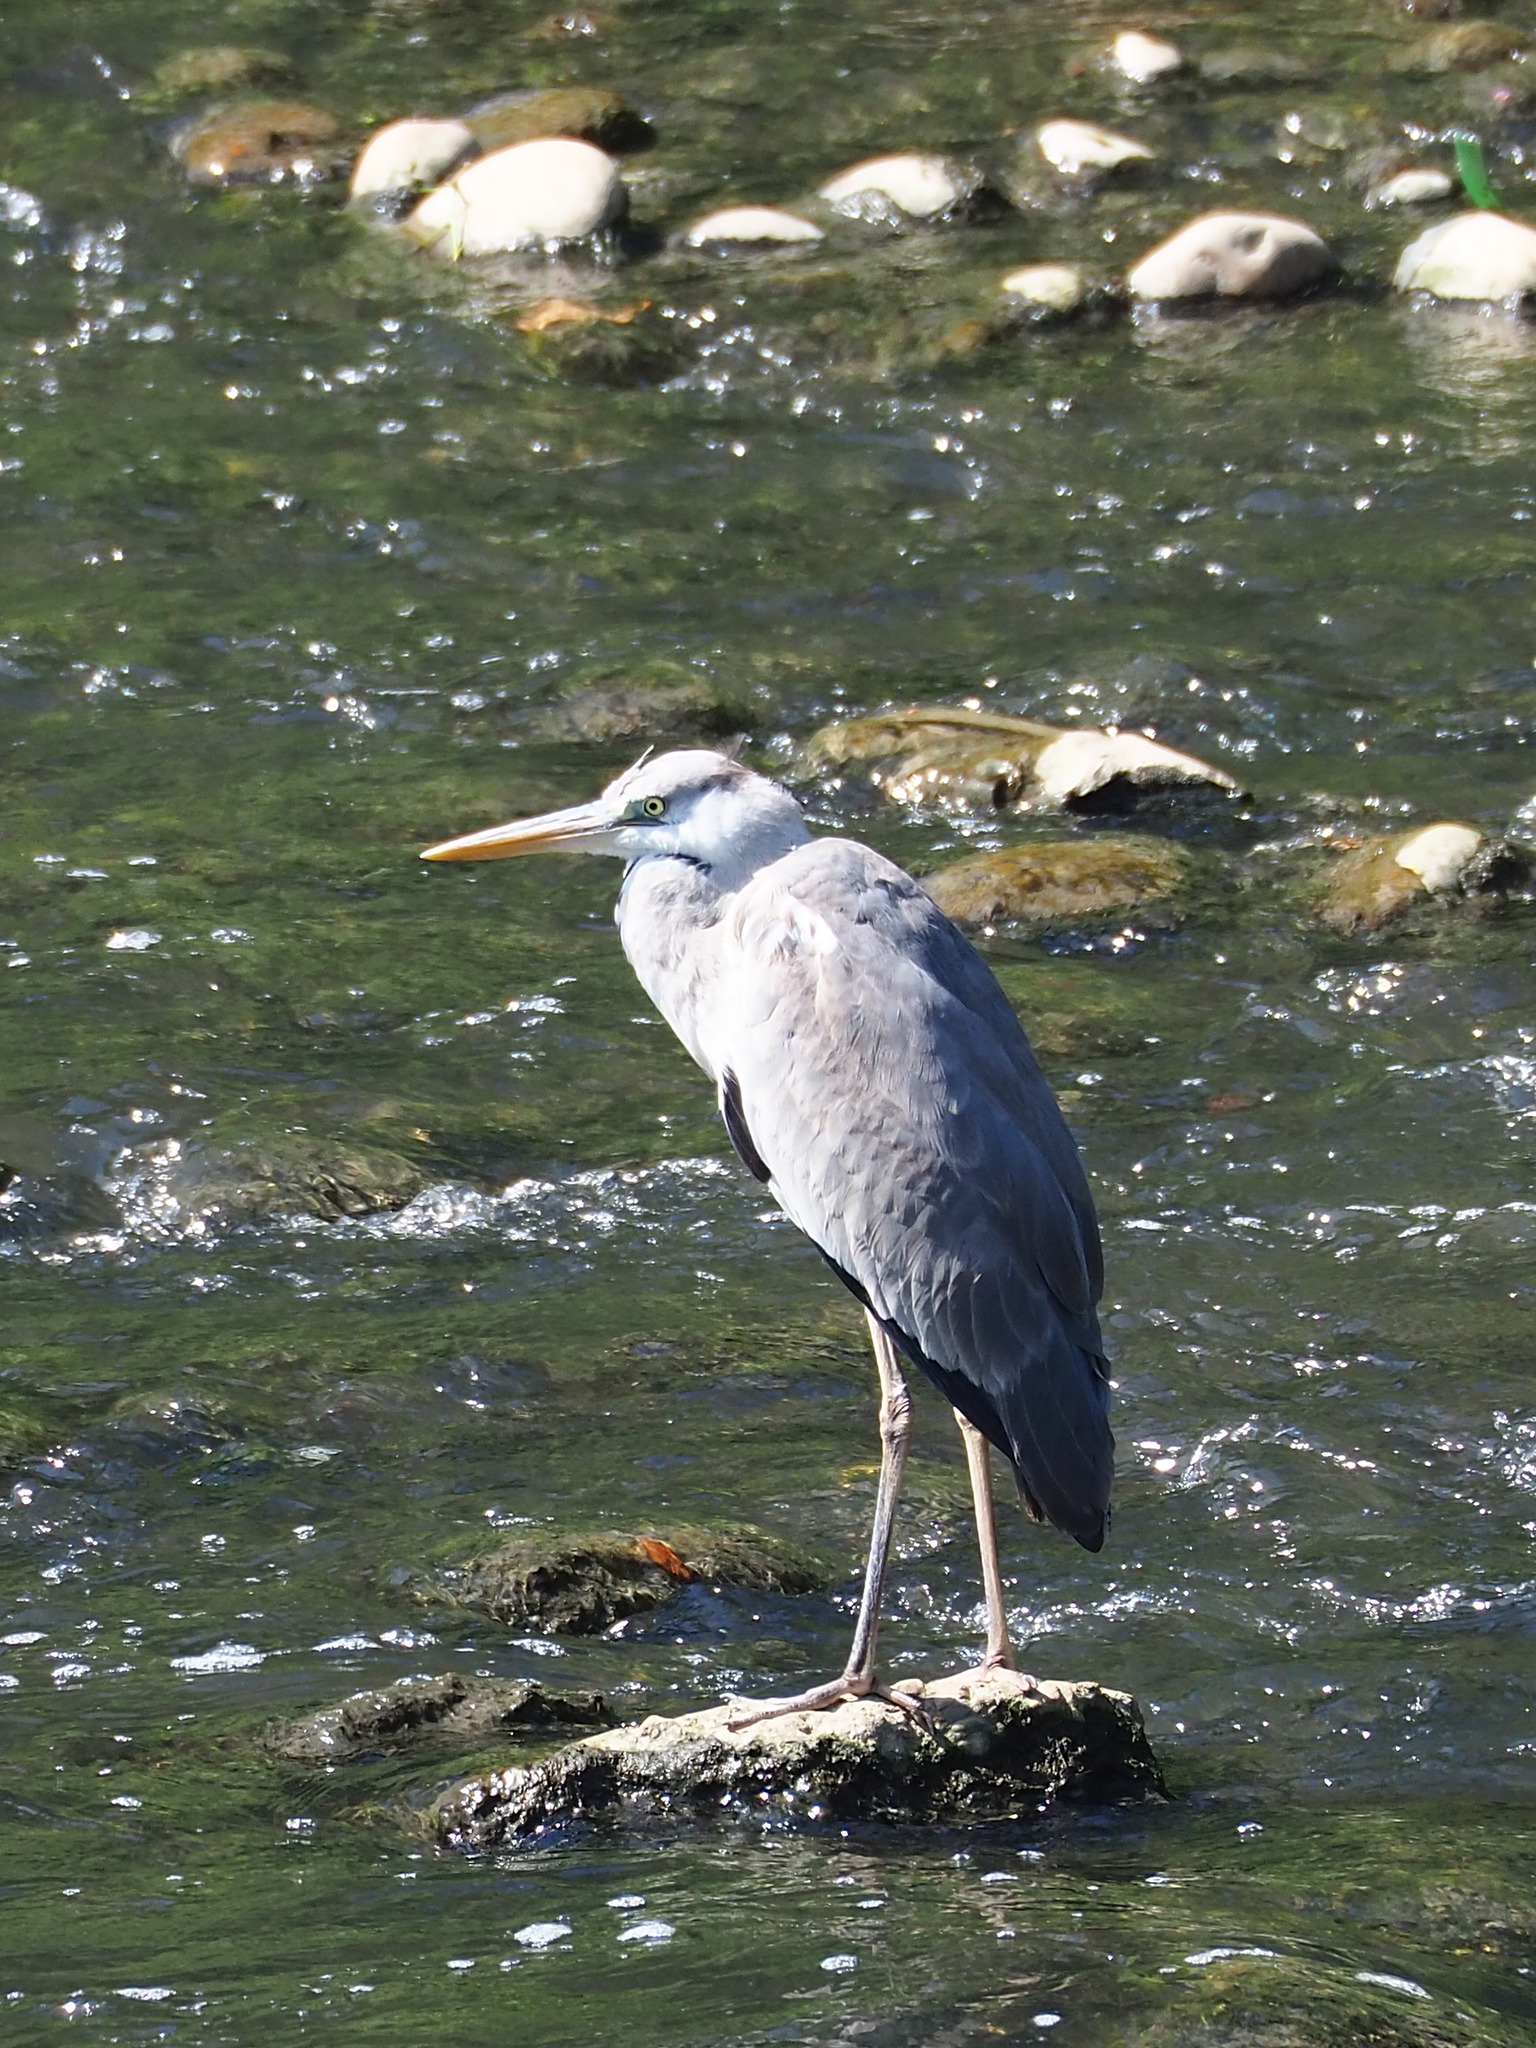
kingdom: Animalia
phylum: Chordata
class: Aves
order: Pelecaniformes
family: Ardeidae
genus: Ardea
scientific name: Ardea cinerea
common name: Grey heron
